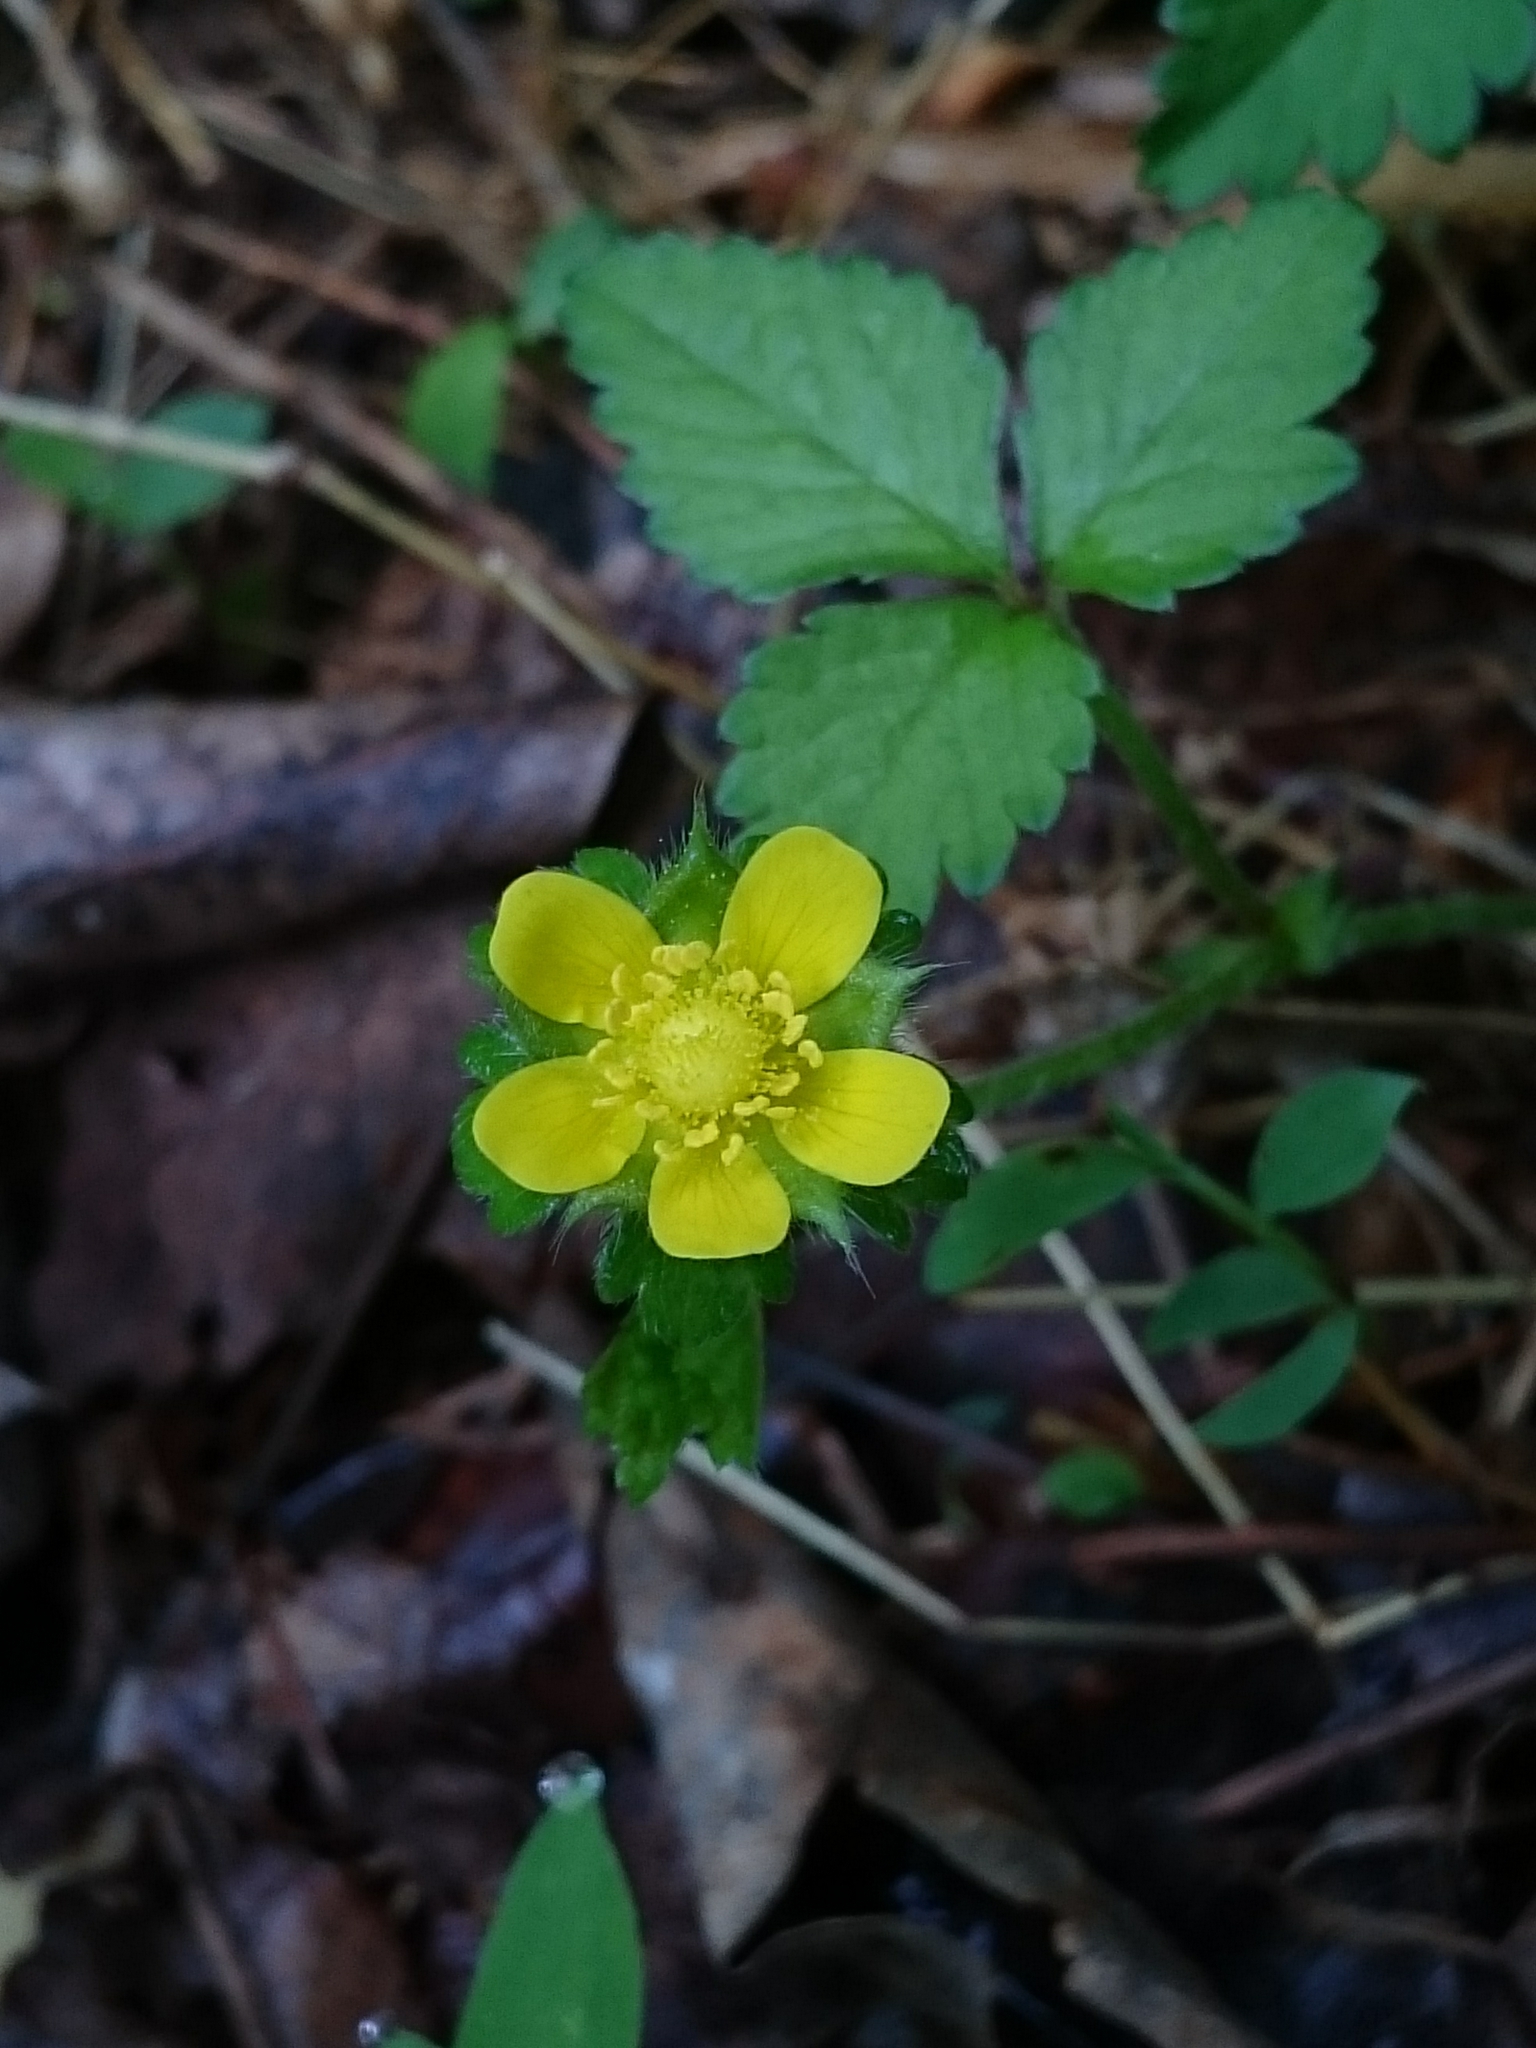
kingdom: Plantae
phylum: Tracheophyta
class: Magnoliopsida
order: Rosales
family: Rosaceae
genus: Potentilla
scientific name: Potentilla indica
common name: Yellow-flowered strawberry
